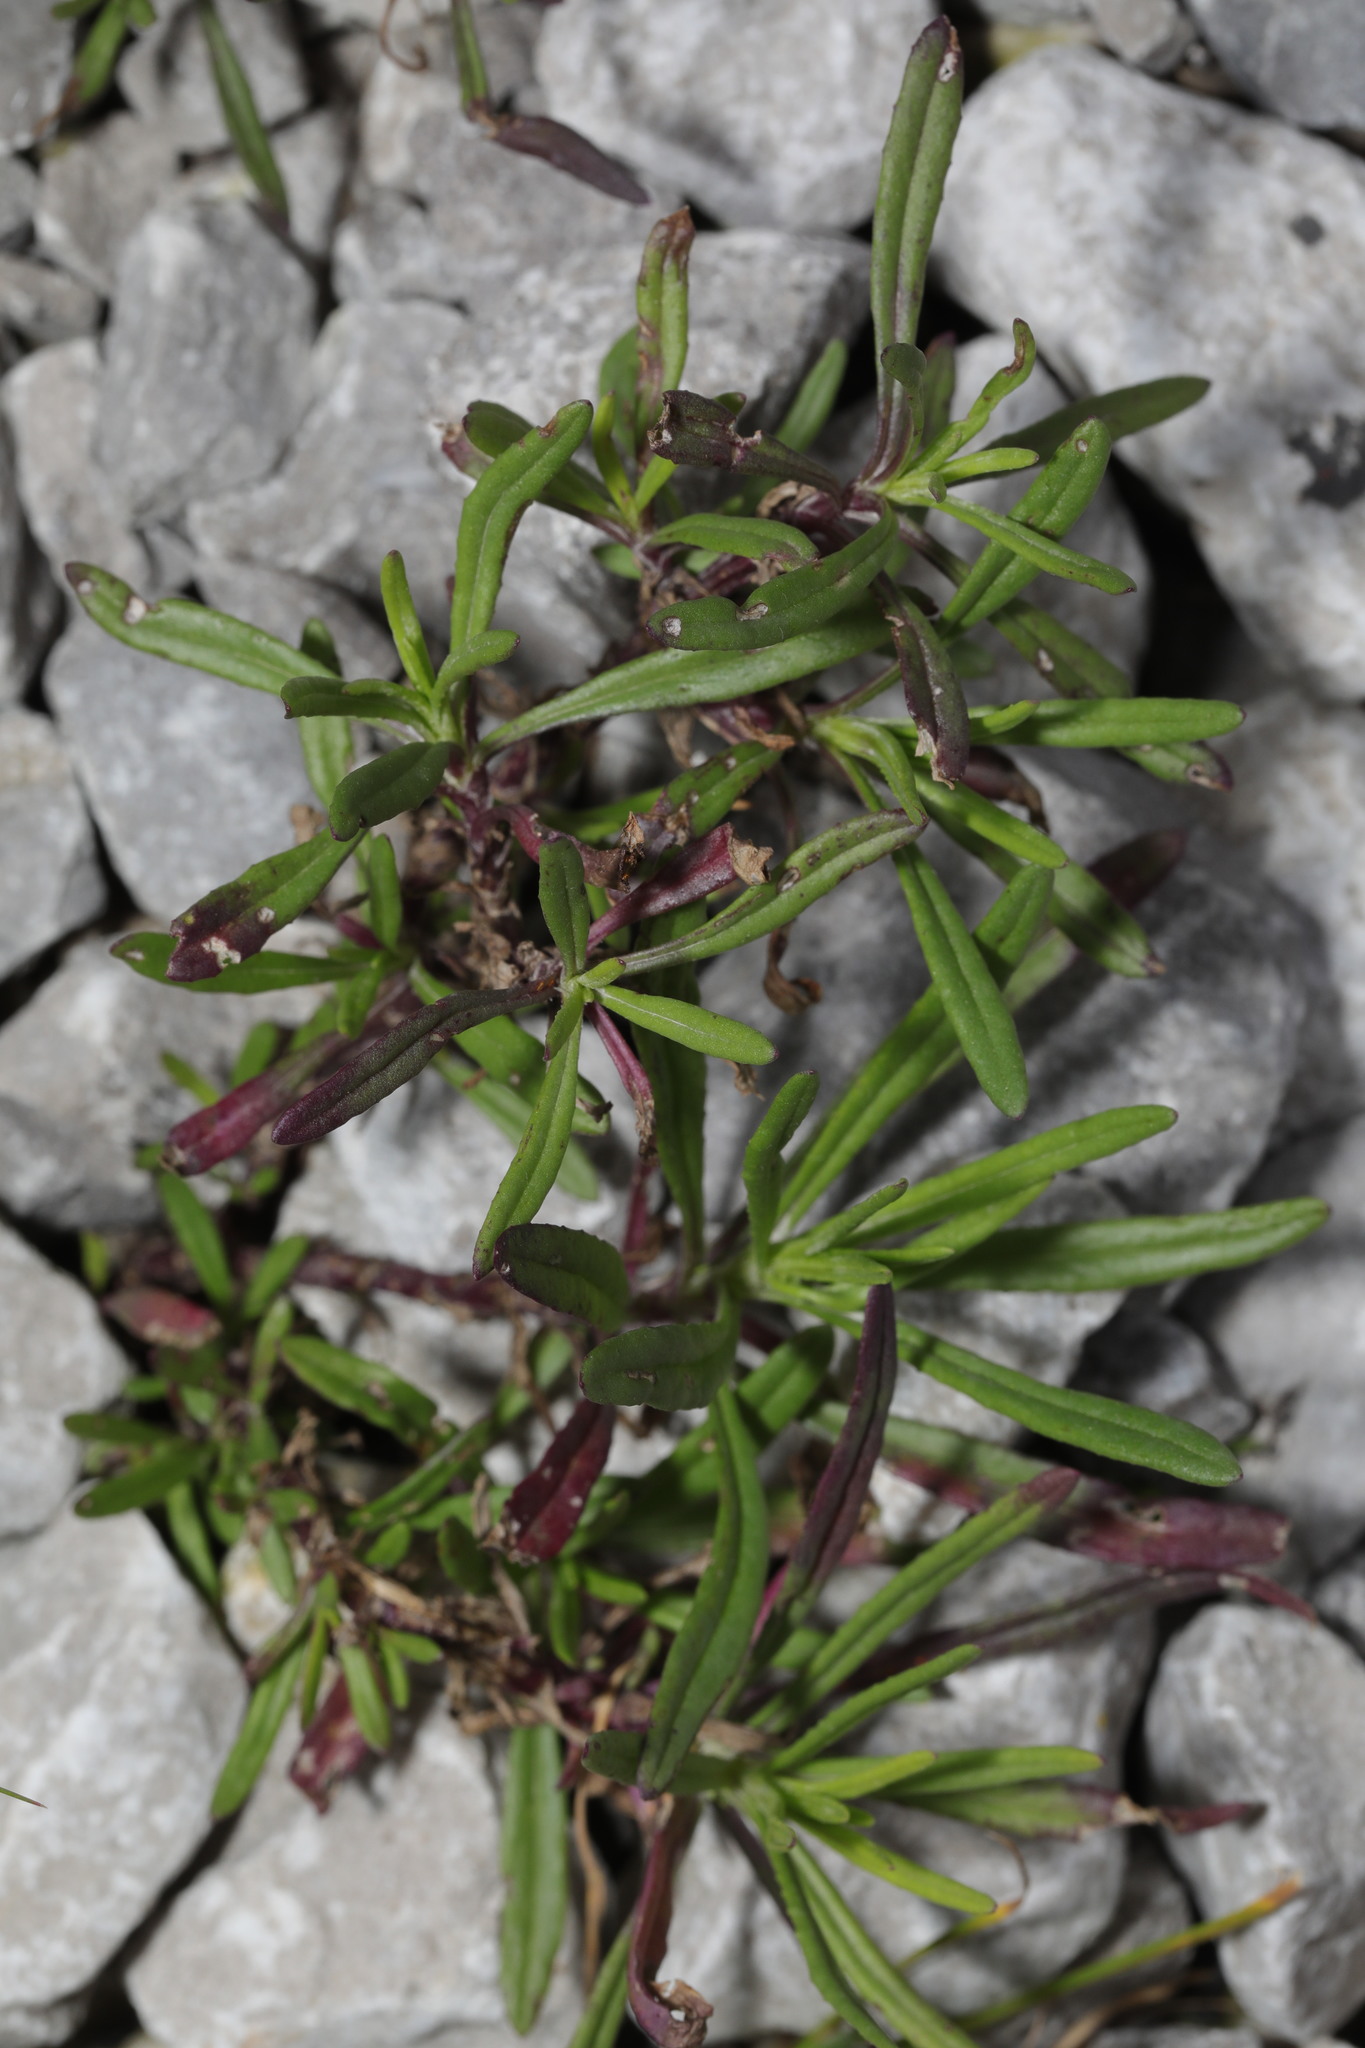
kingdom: Plantae
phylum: Tracheophyta
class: Magnoliopsida
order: Asterales
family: Asteraceae
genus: Senecio
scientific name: Senecio inaequidens
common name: Narrow-leaved ragwort
